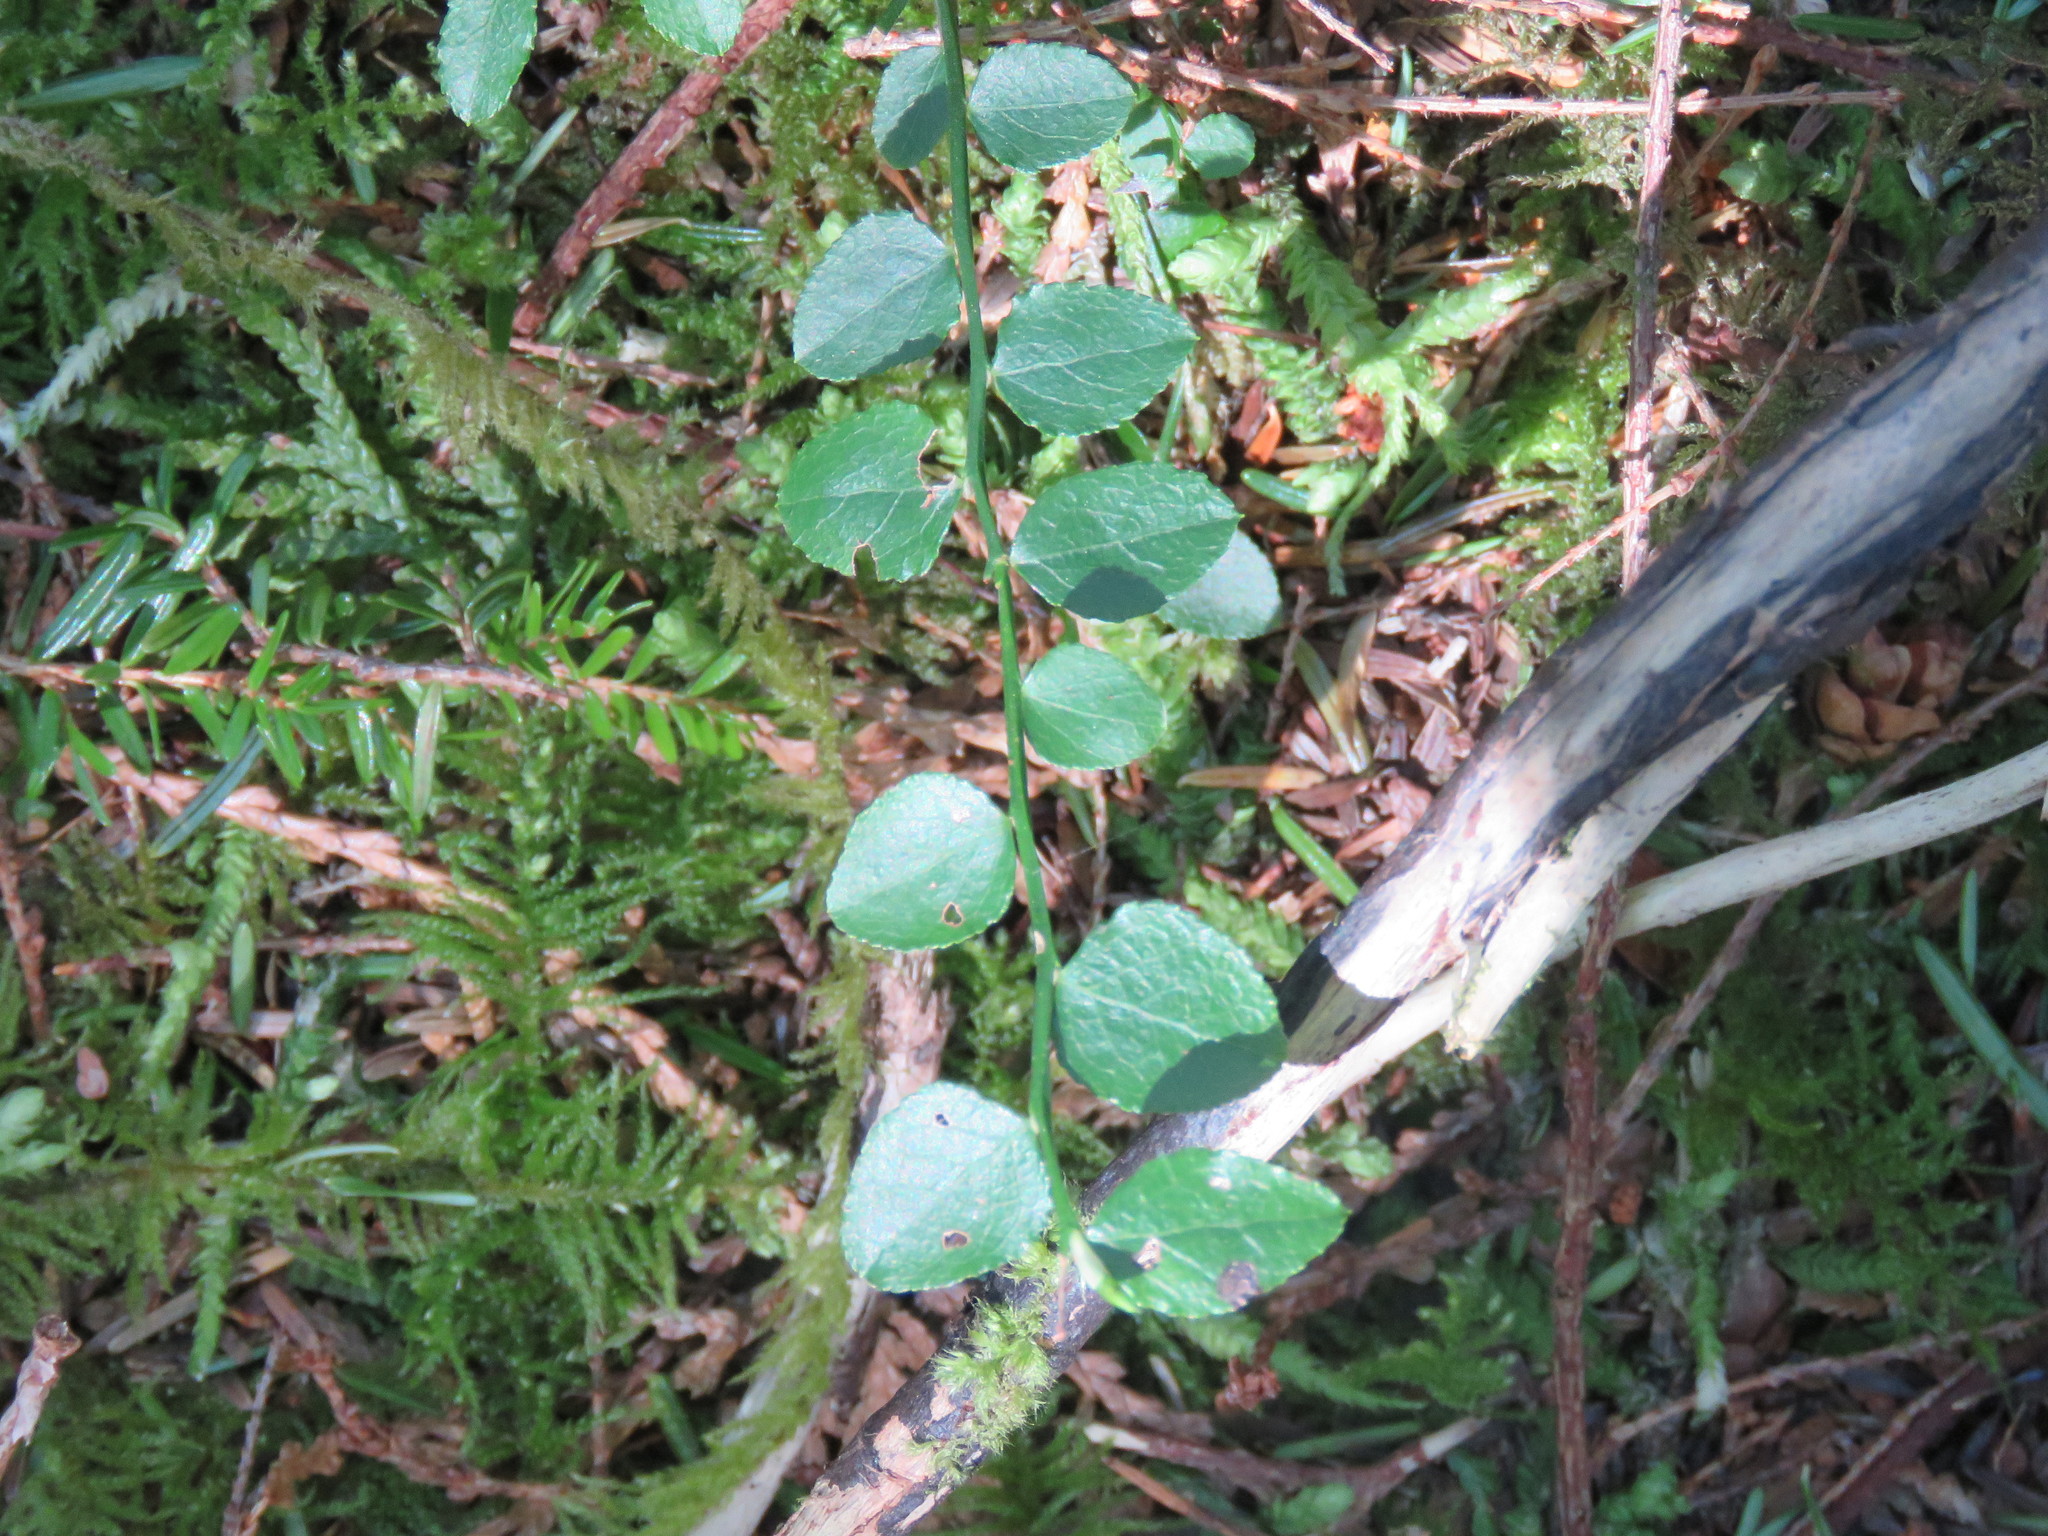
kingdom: Plantae
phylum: Tracheophyta
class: Magnoliopsida
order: Ericales
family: Ericaceae
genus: Vaccinium
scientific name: Vaccinium parvifolium
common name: Red-huckleberry
